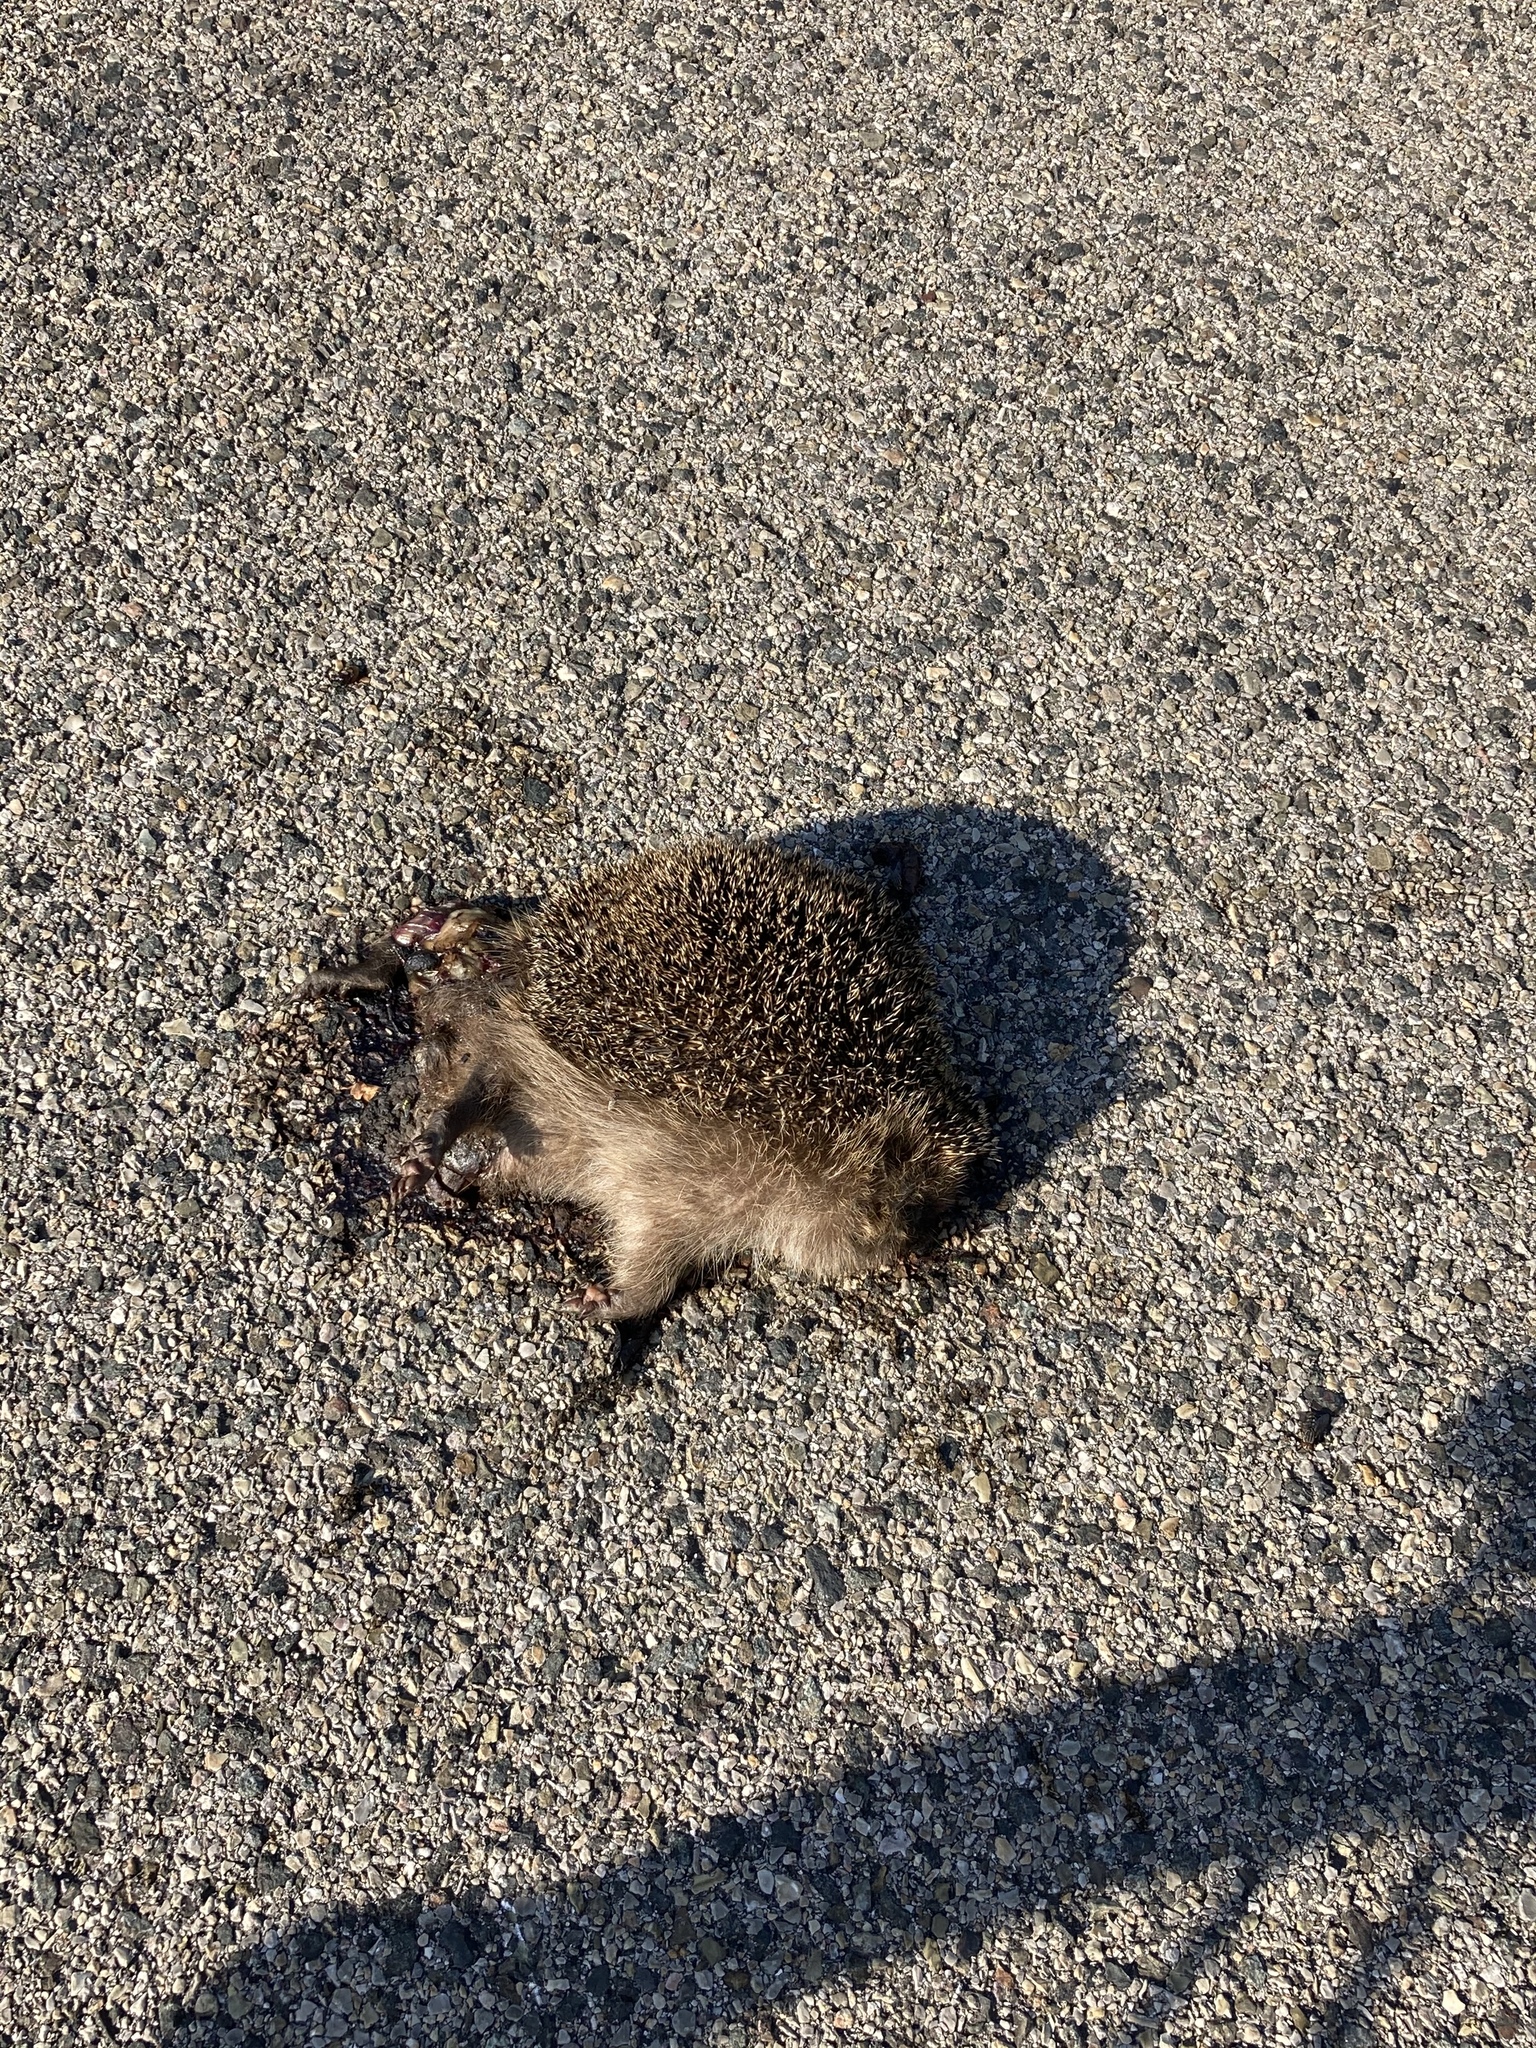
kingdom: Animalia
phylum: Chordata
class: Mammalia
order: Erinaceomorpha
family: Erinaceidae
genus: Erinaceus
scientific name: Erinaceus europaeus
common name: West european hedgehog
